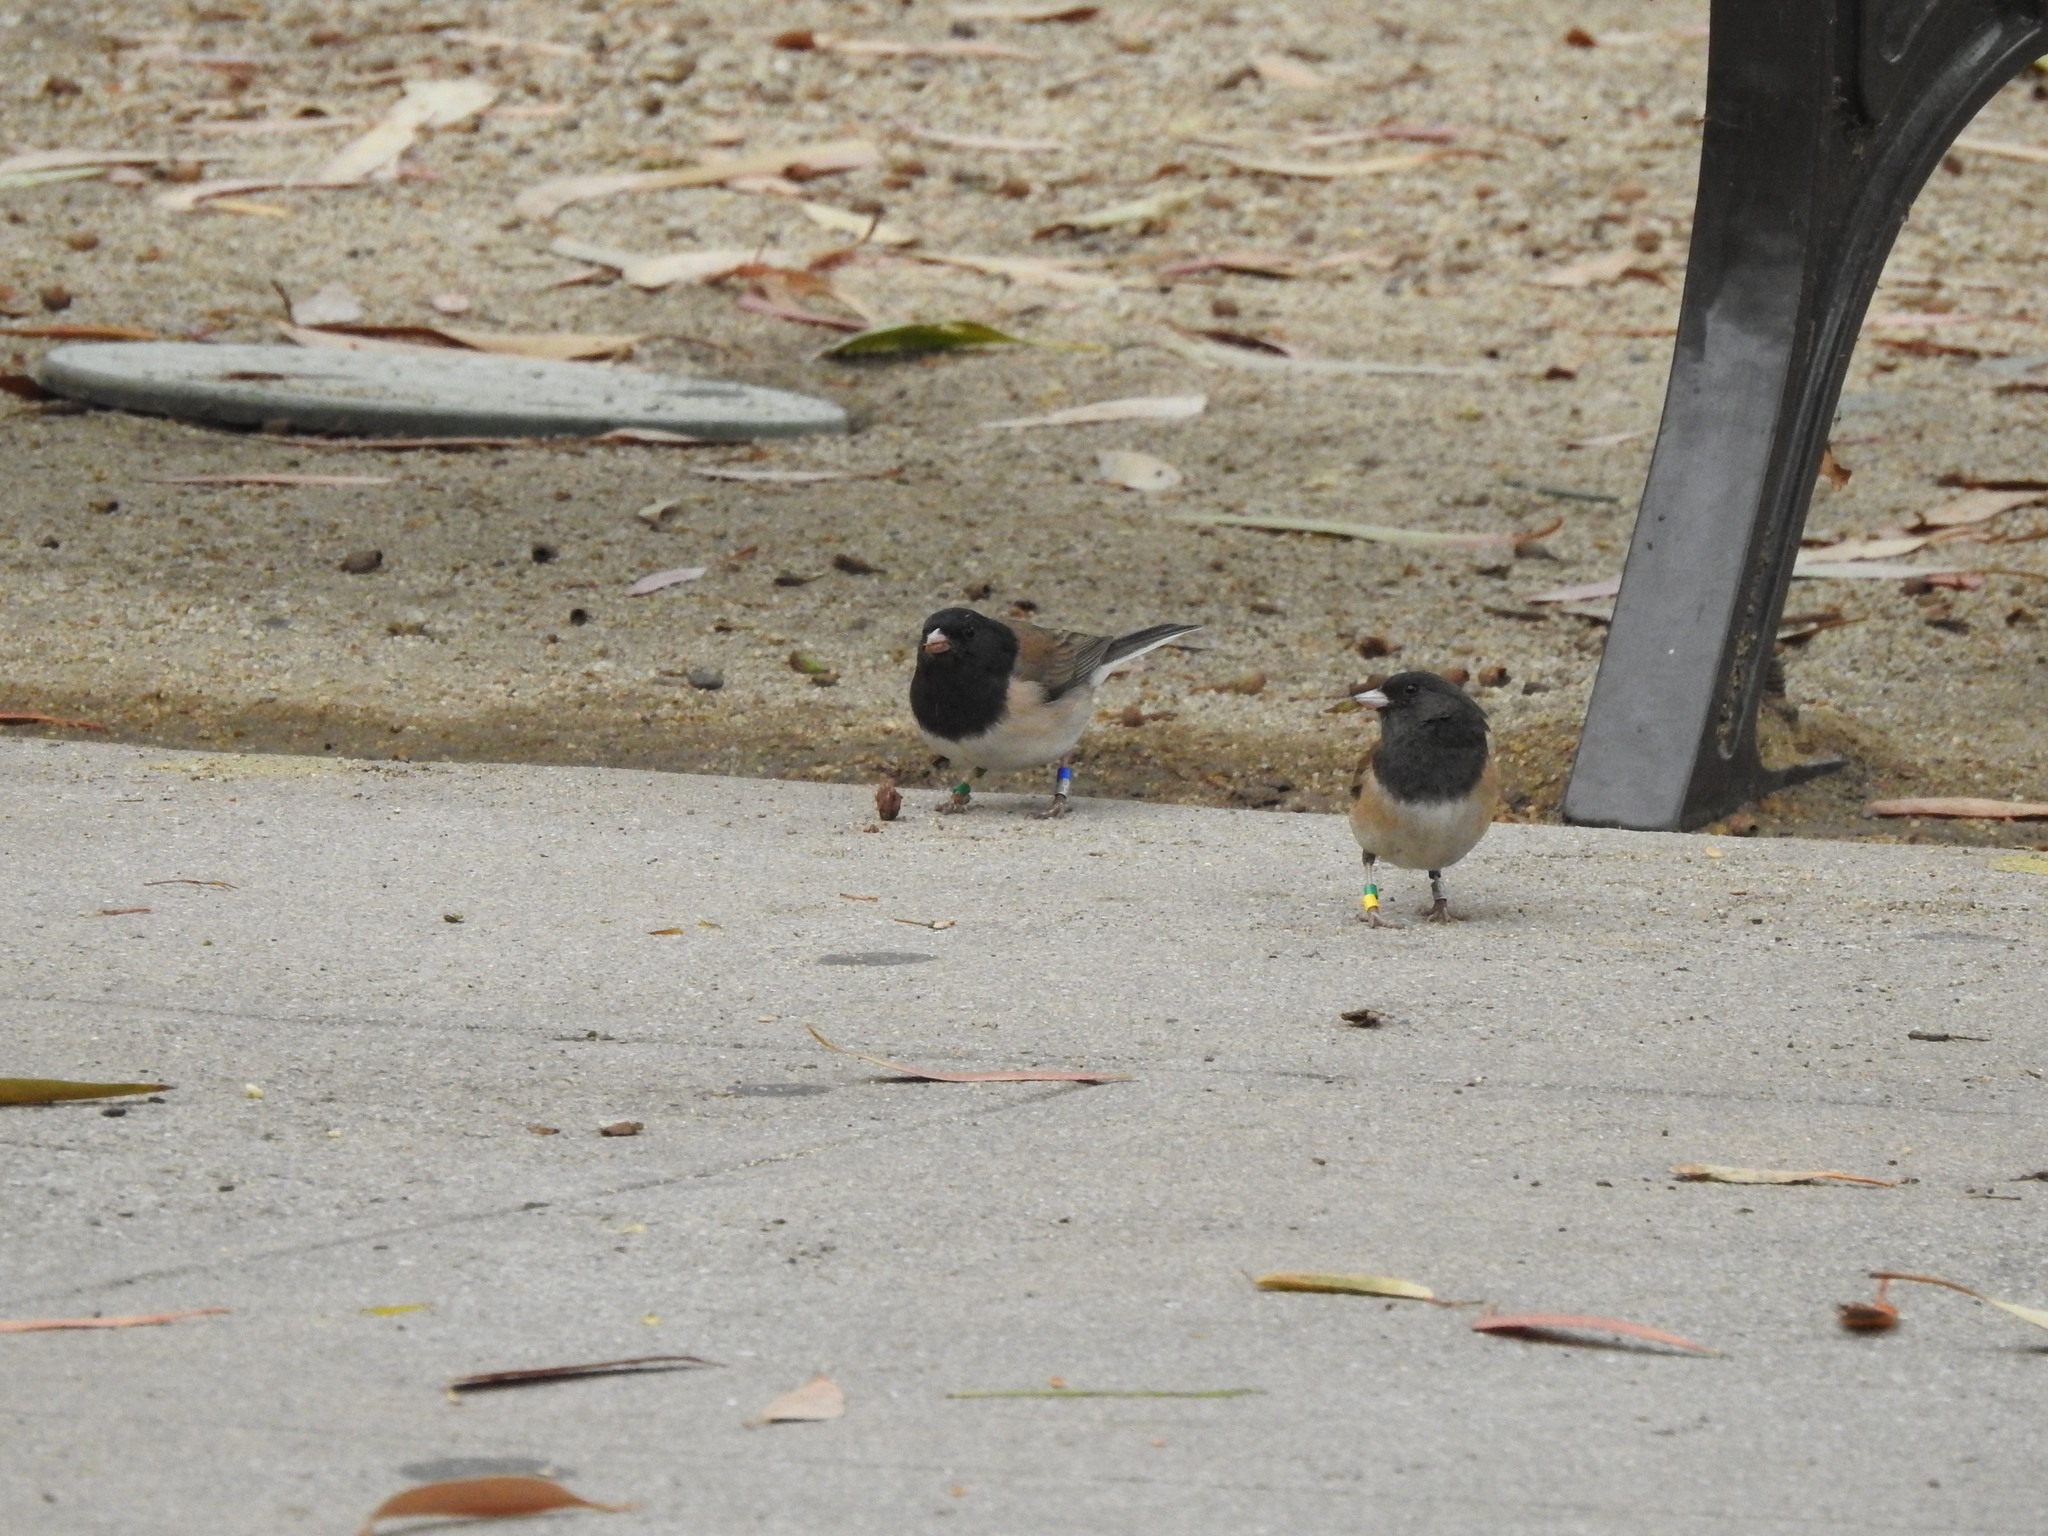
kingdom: Animalia
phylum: Chordata
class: Aves
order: Passeriformes
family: Passerellidae
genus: Junco
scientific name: Junco hyemalis
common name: Dark-eyed junco
